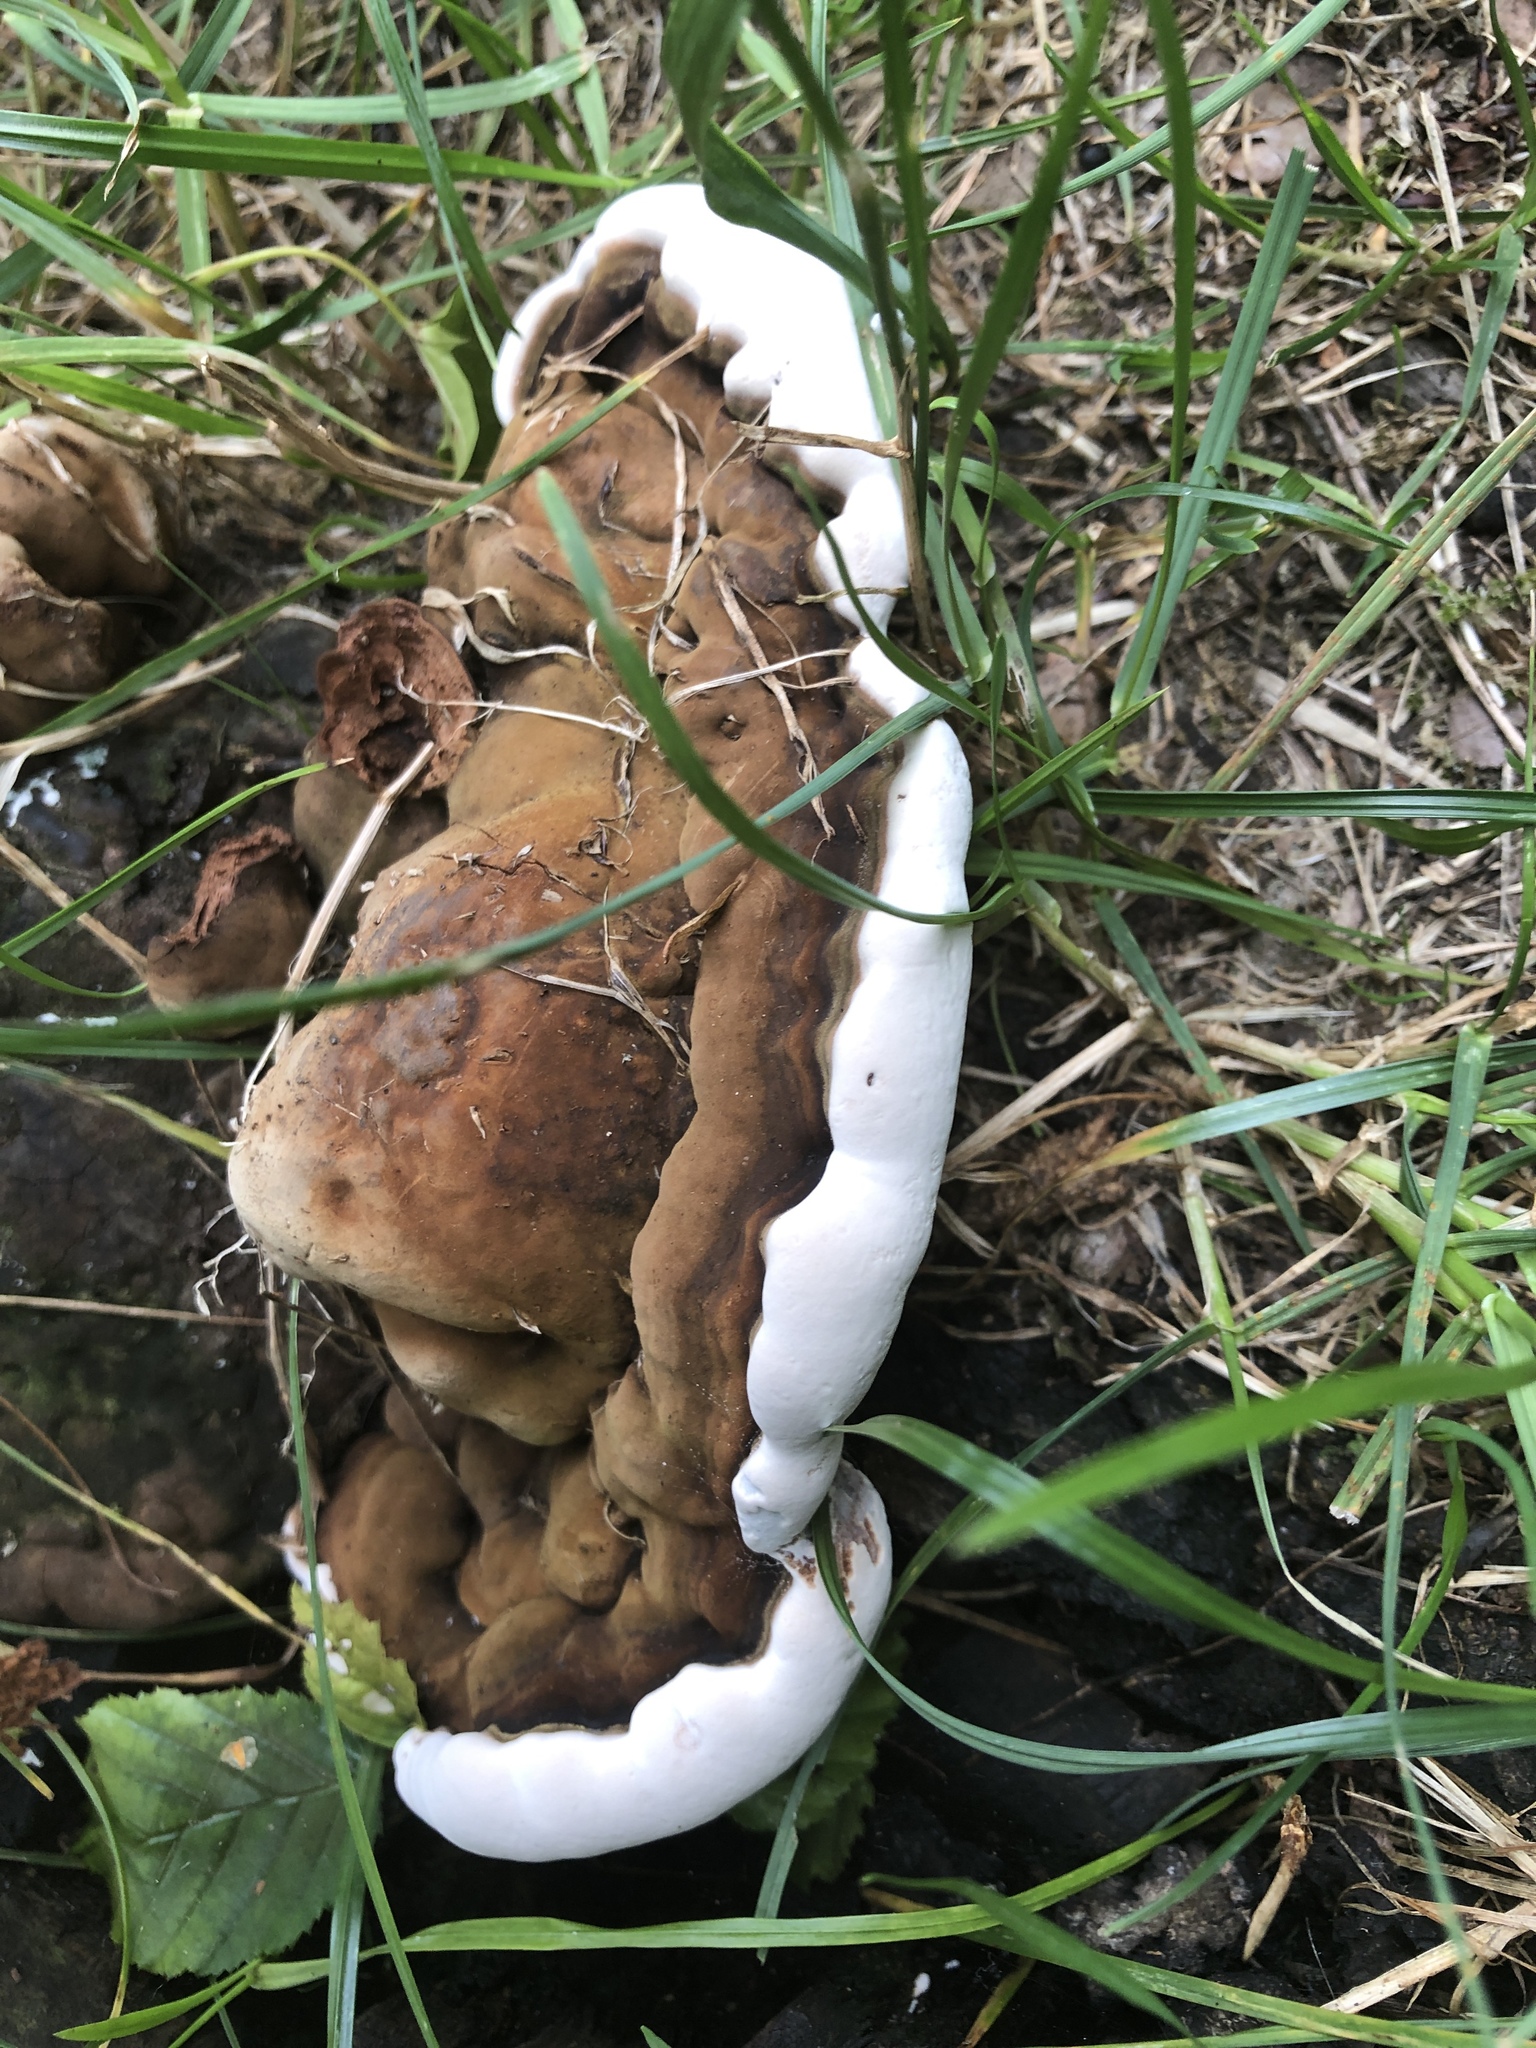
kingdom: Fungi
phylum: Basidiomycota
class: Agaricomycetes
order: Polyporales
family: Polyporaceae
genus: Ganoderma
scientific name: Ganoderma applanatum
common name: Artist's bracket
